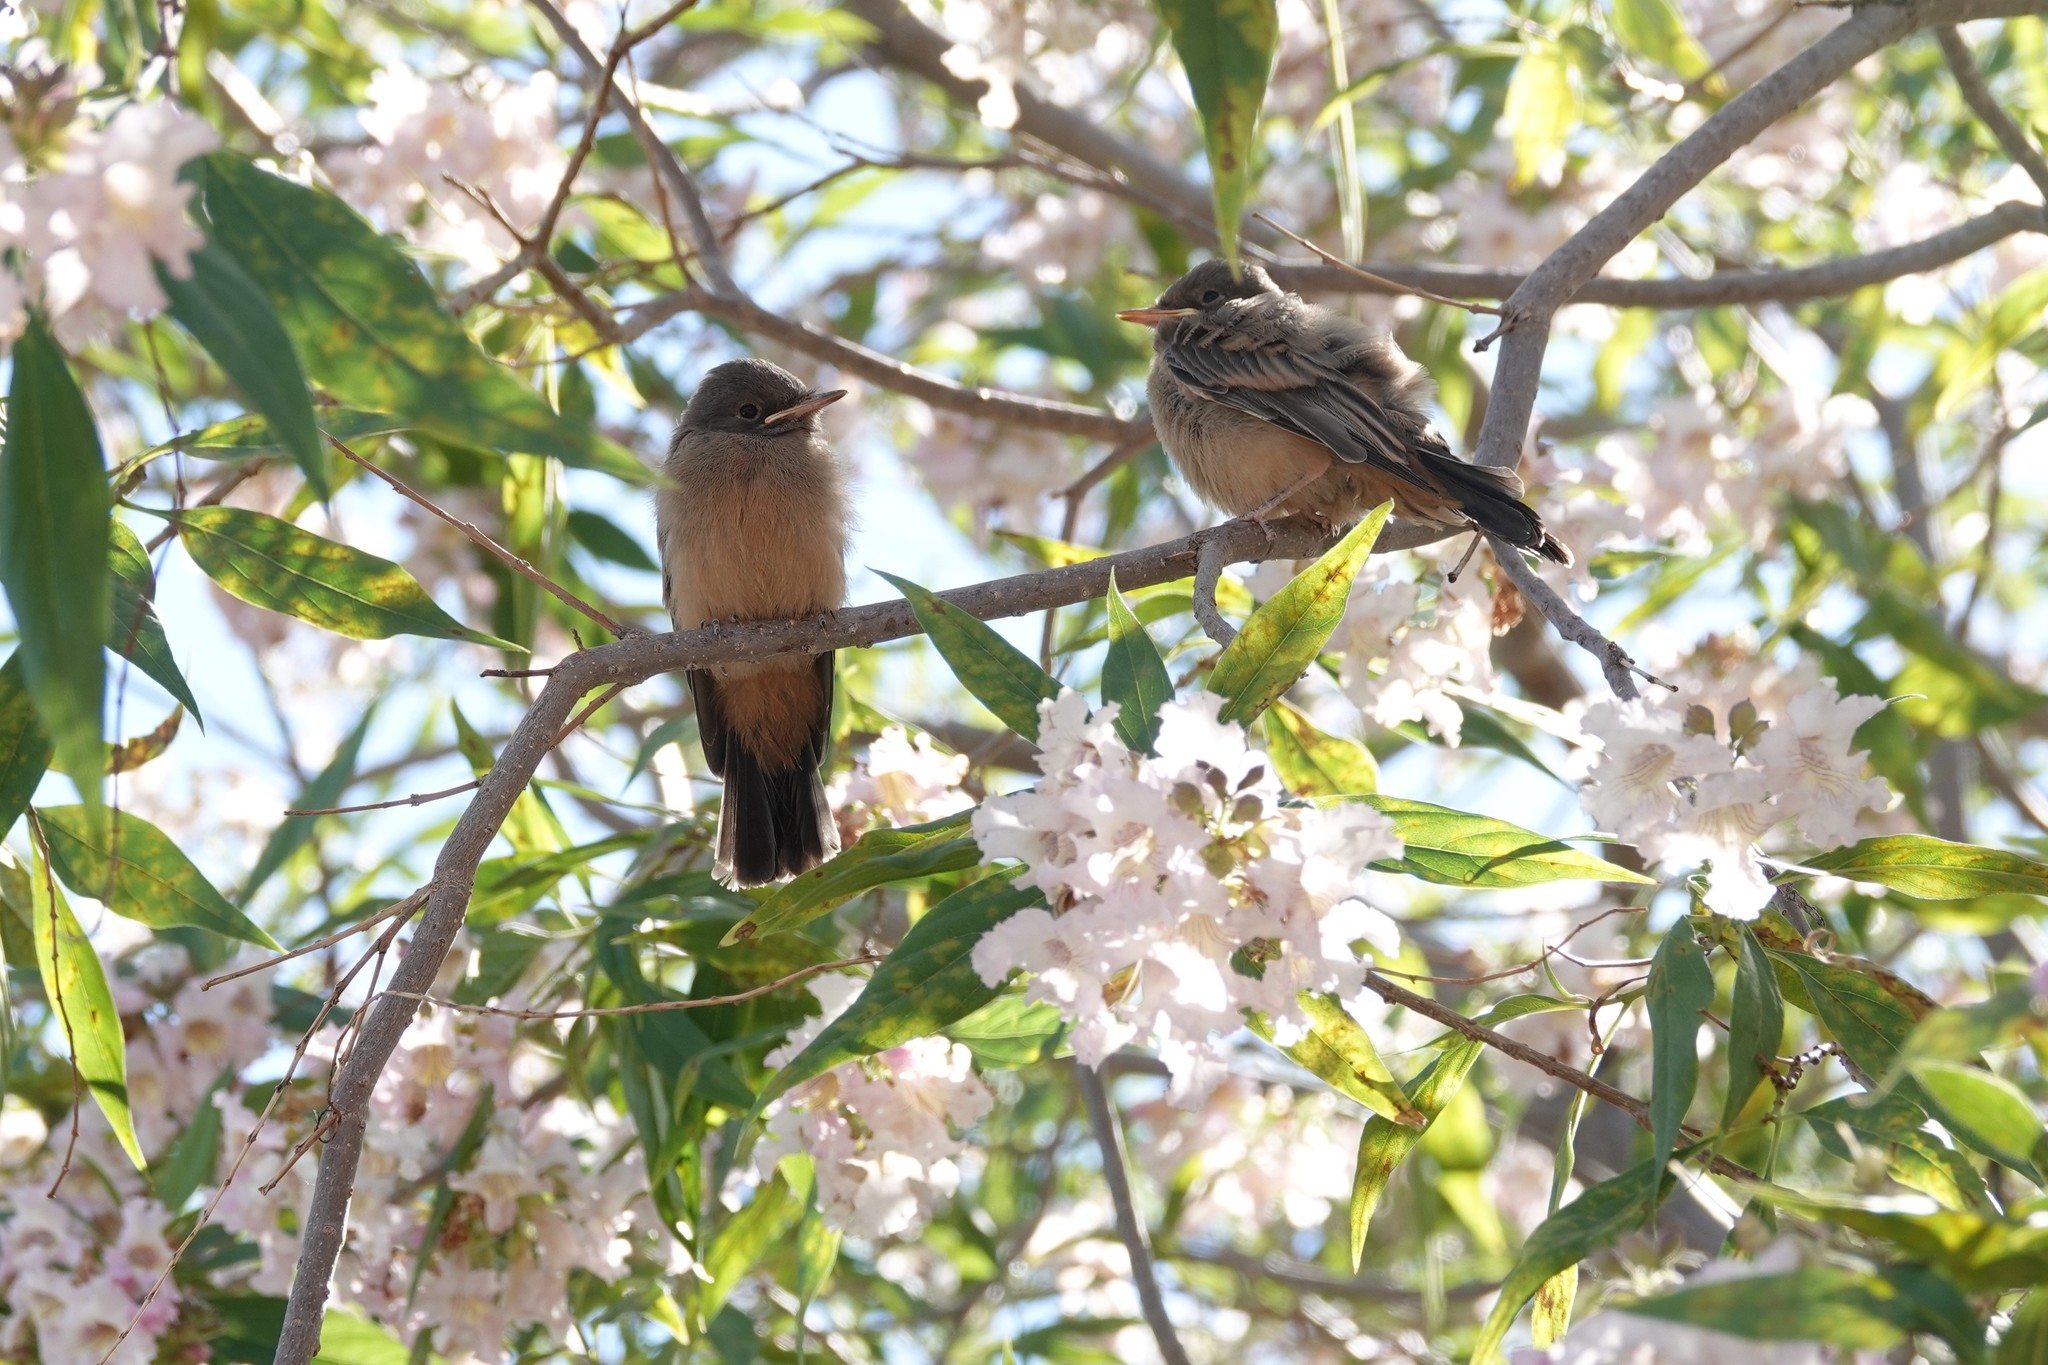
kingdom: Animalia
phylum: Chordata
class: Aves
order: Passeriformes
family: Tyrannidae
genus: Sayornis
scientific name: Sayornis saya
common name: Say's phoebe
